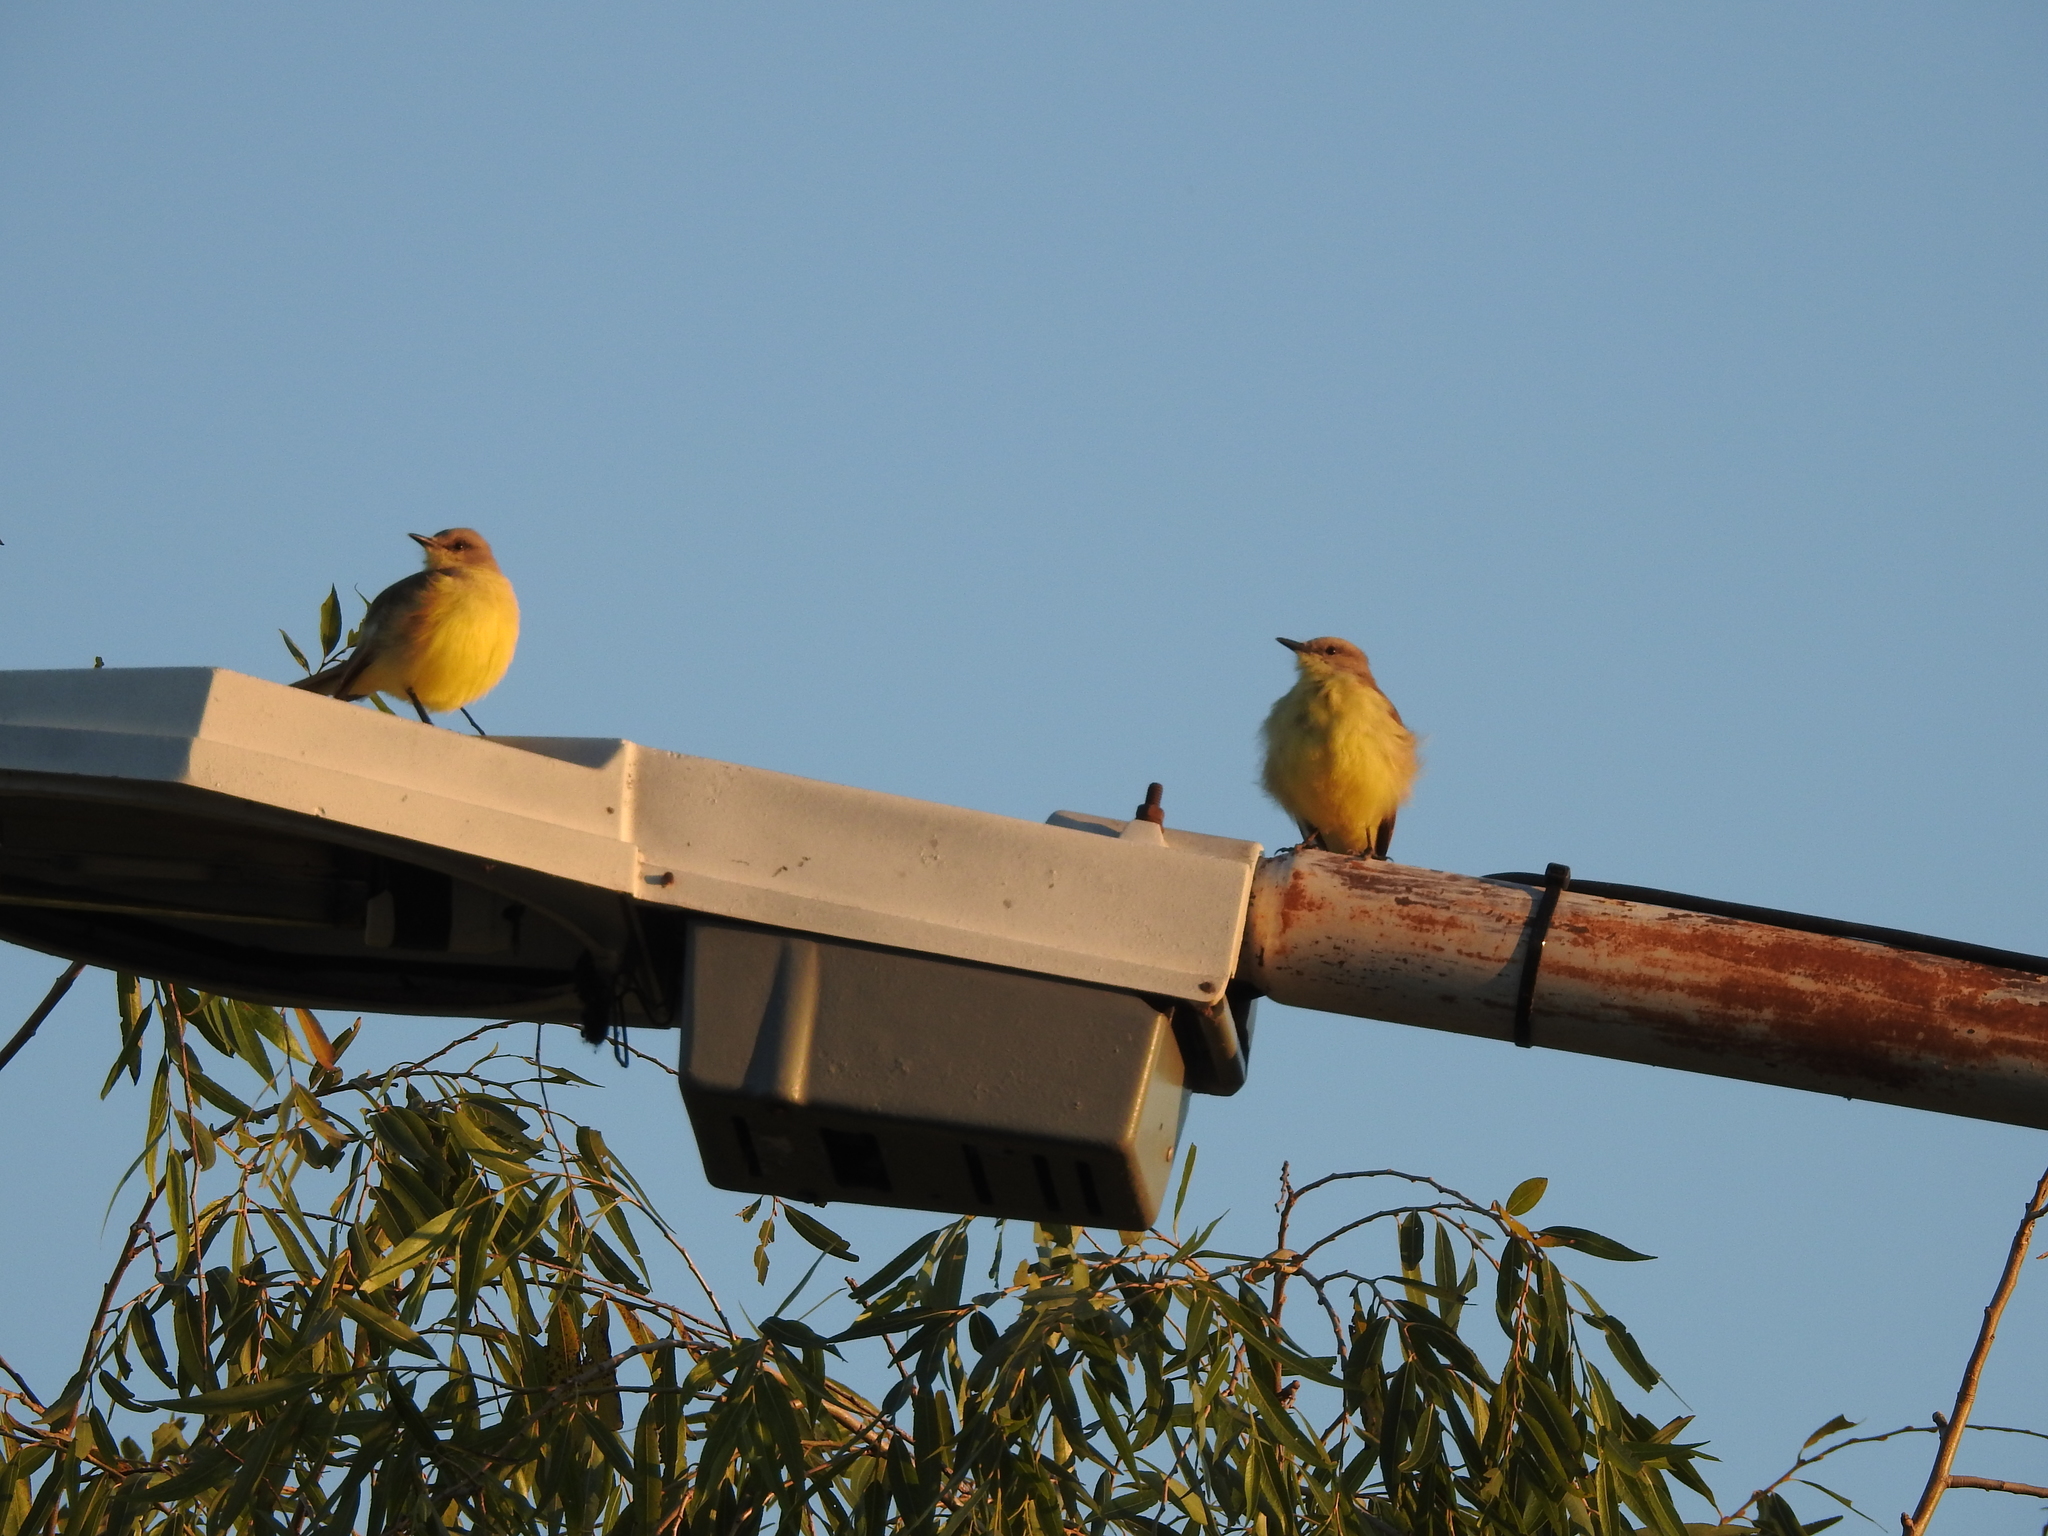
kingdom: Animalia
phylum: Chordata
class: Aves
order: Passeriformes
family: Tyrannidae
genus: Machetornis
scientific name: Machetornis rixosa
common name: Cattle tyrant
